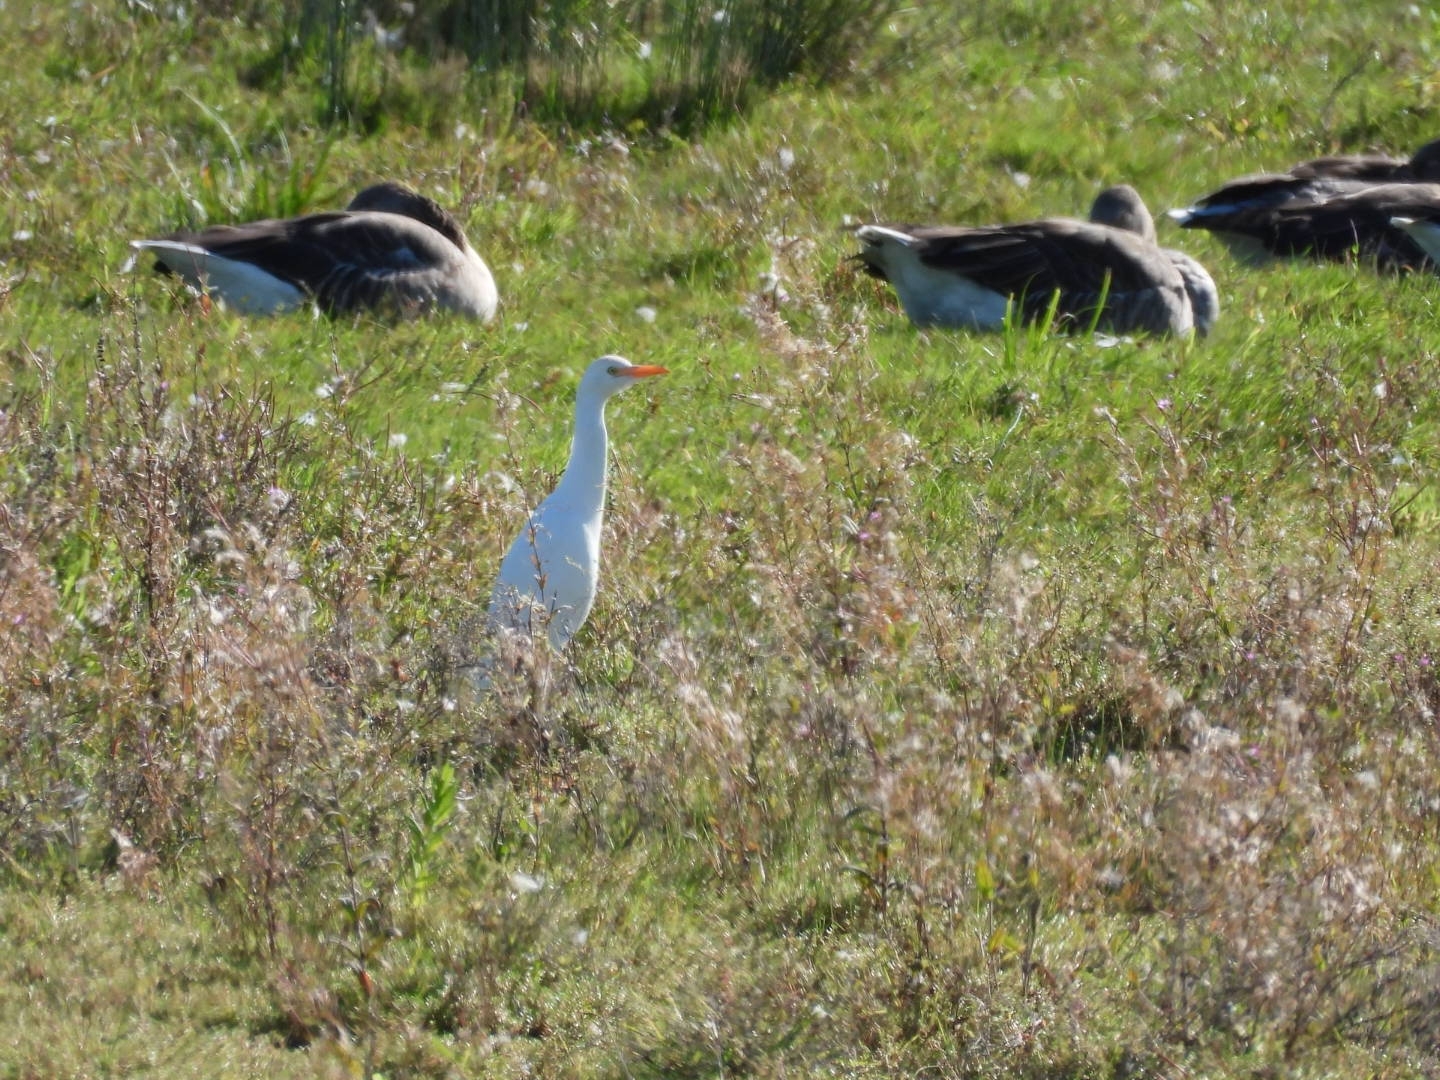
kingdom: Animalia
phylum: Chordata
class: Aves
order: Pelecaniformes
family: Ardeidae
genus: Bubulcus
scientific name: Bubulcus ibis
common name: Cattle egret
